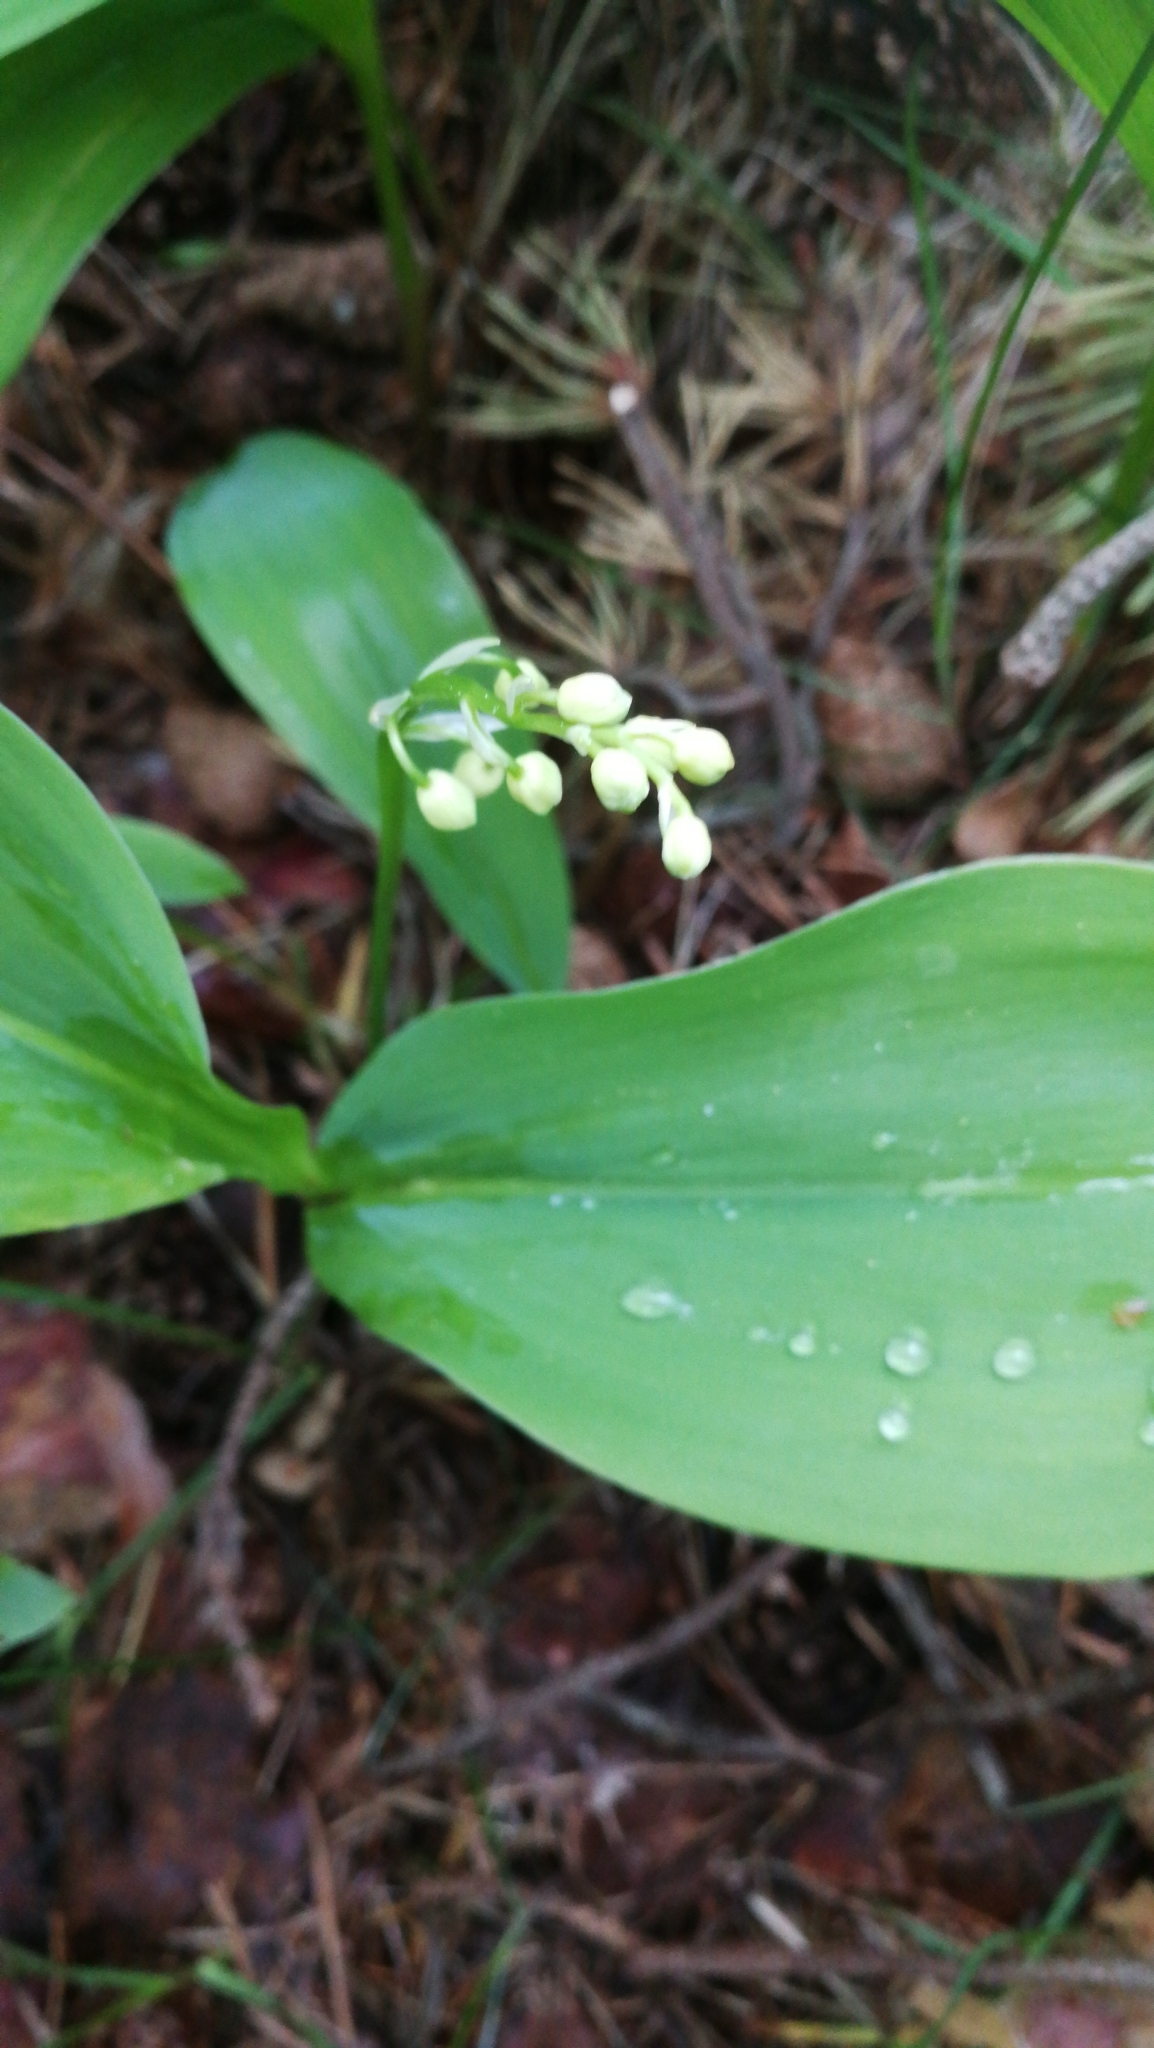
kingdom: Plantae
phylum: Tracheophyta
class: Liliopsida
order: Asparagales
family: Asparagaceae
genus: Convallaria
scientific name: Convallaria majalis
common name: Lily-of-the-valley
